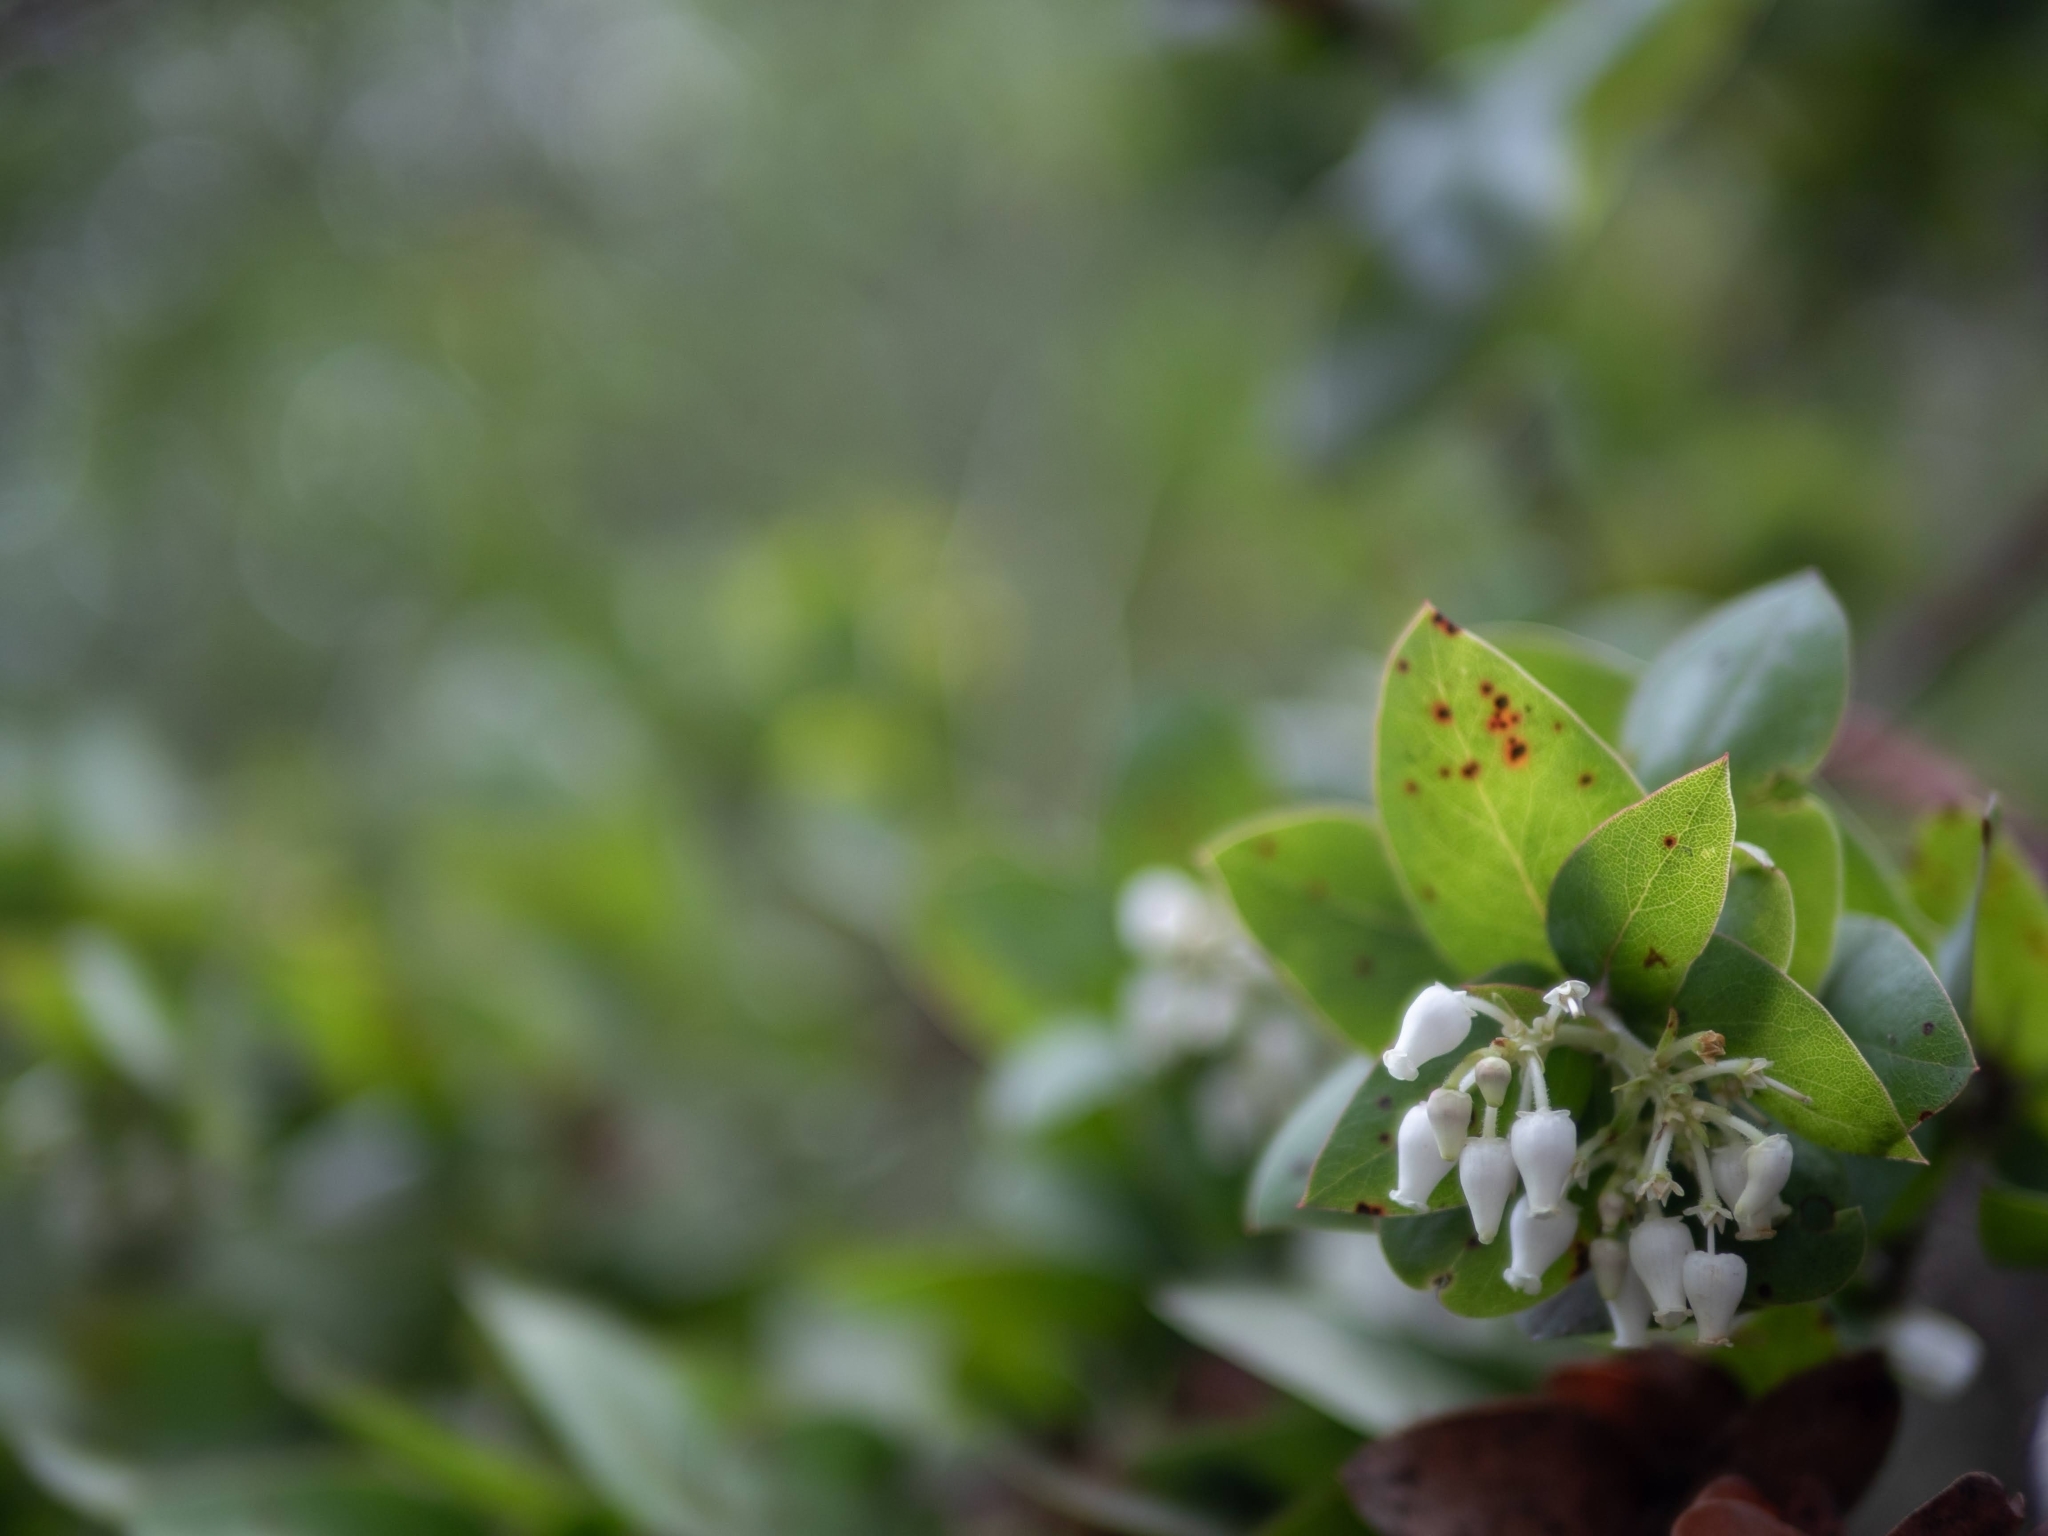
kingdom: Plantae
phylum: Tracheophyta
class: Magnoliopsida
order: Ericales
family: Ericaceae
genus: Arctostaphylos
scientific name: Arctostaphylos pallida
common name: Pallid manzanita
